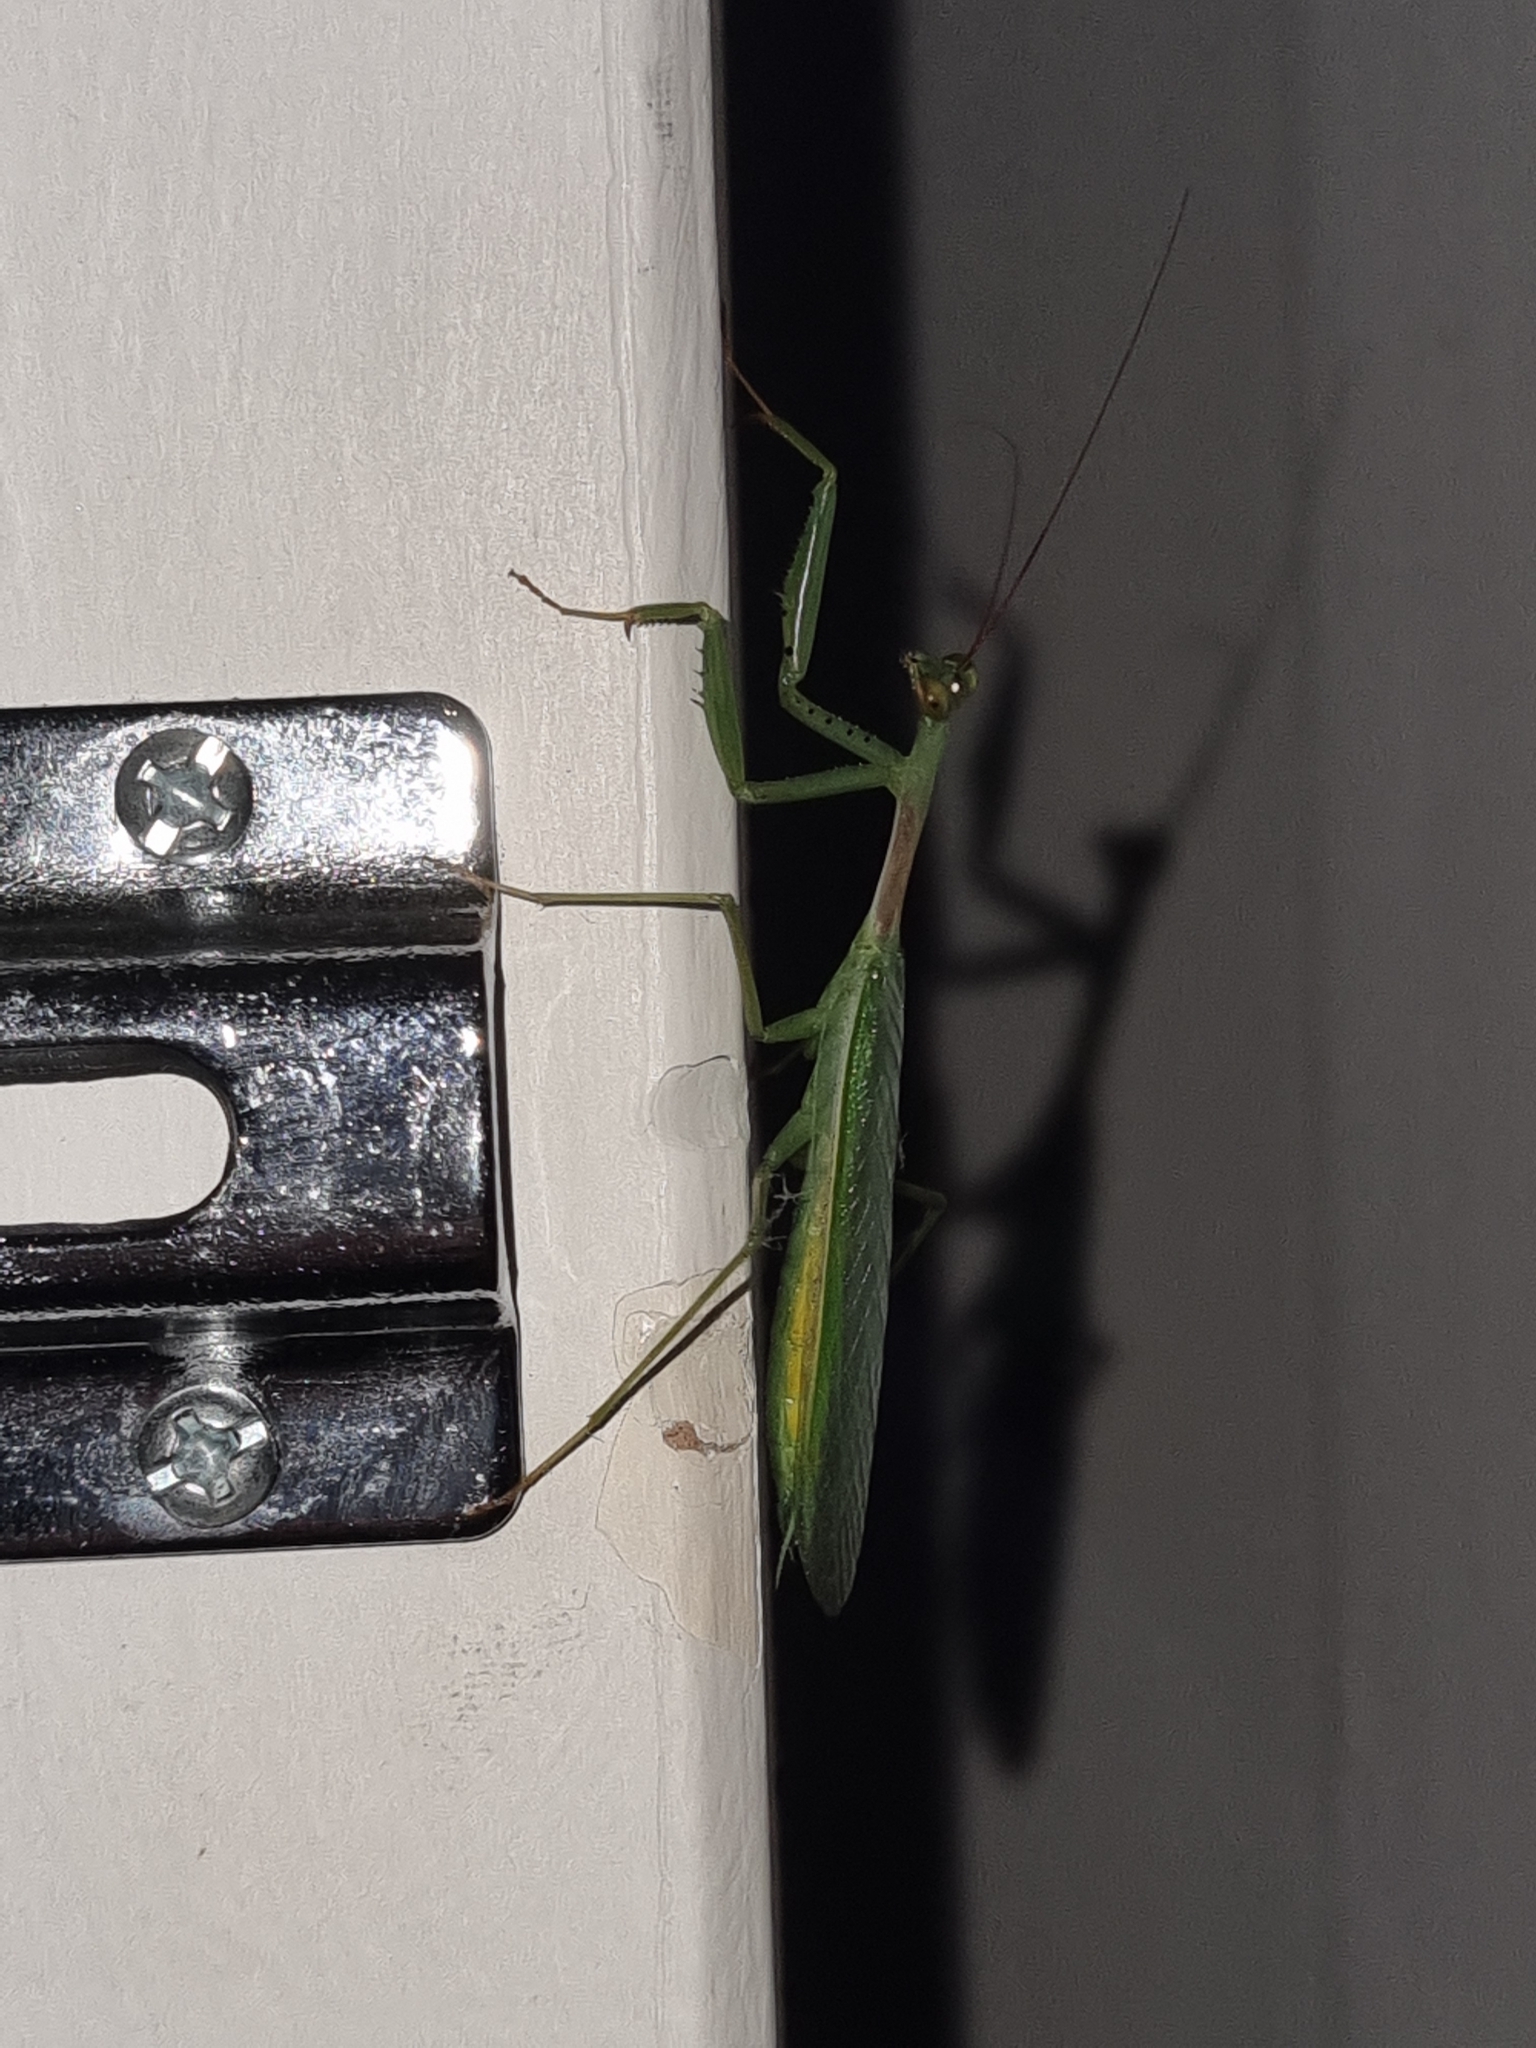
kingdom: Animalia
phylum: Arthropoda
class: Insecta
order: Mantodea
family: Miomantidae
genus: Miomantis
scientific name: Miomantis caffra
